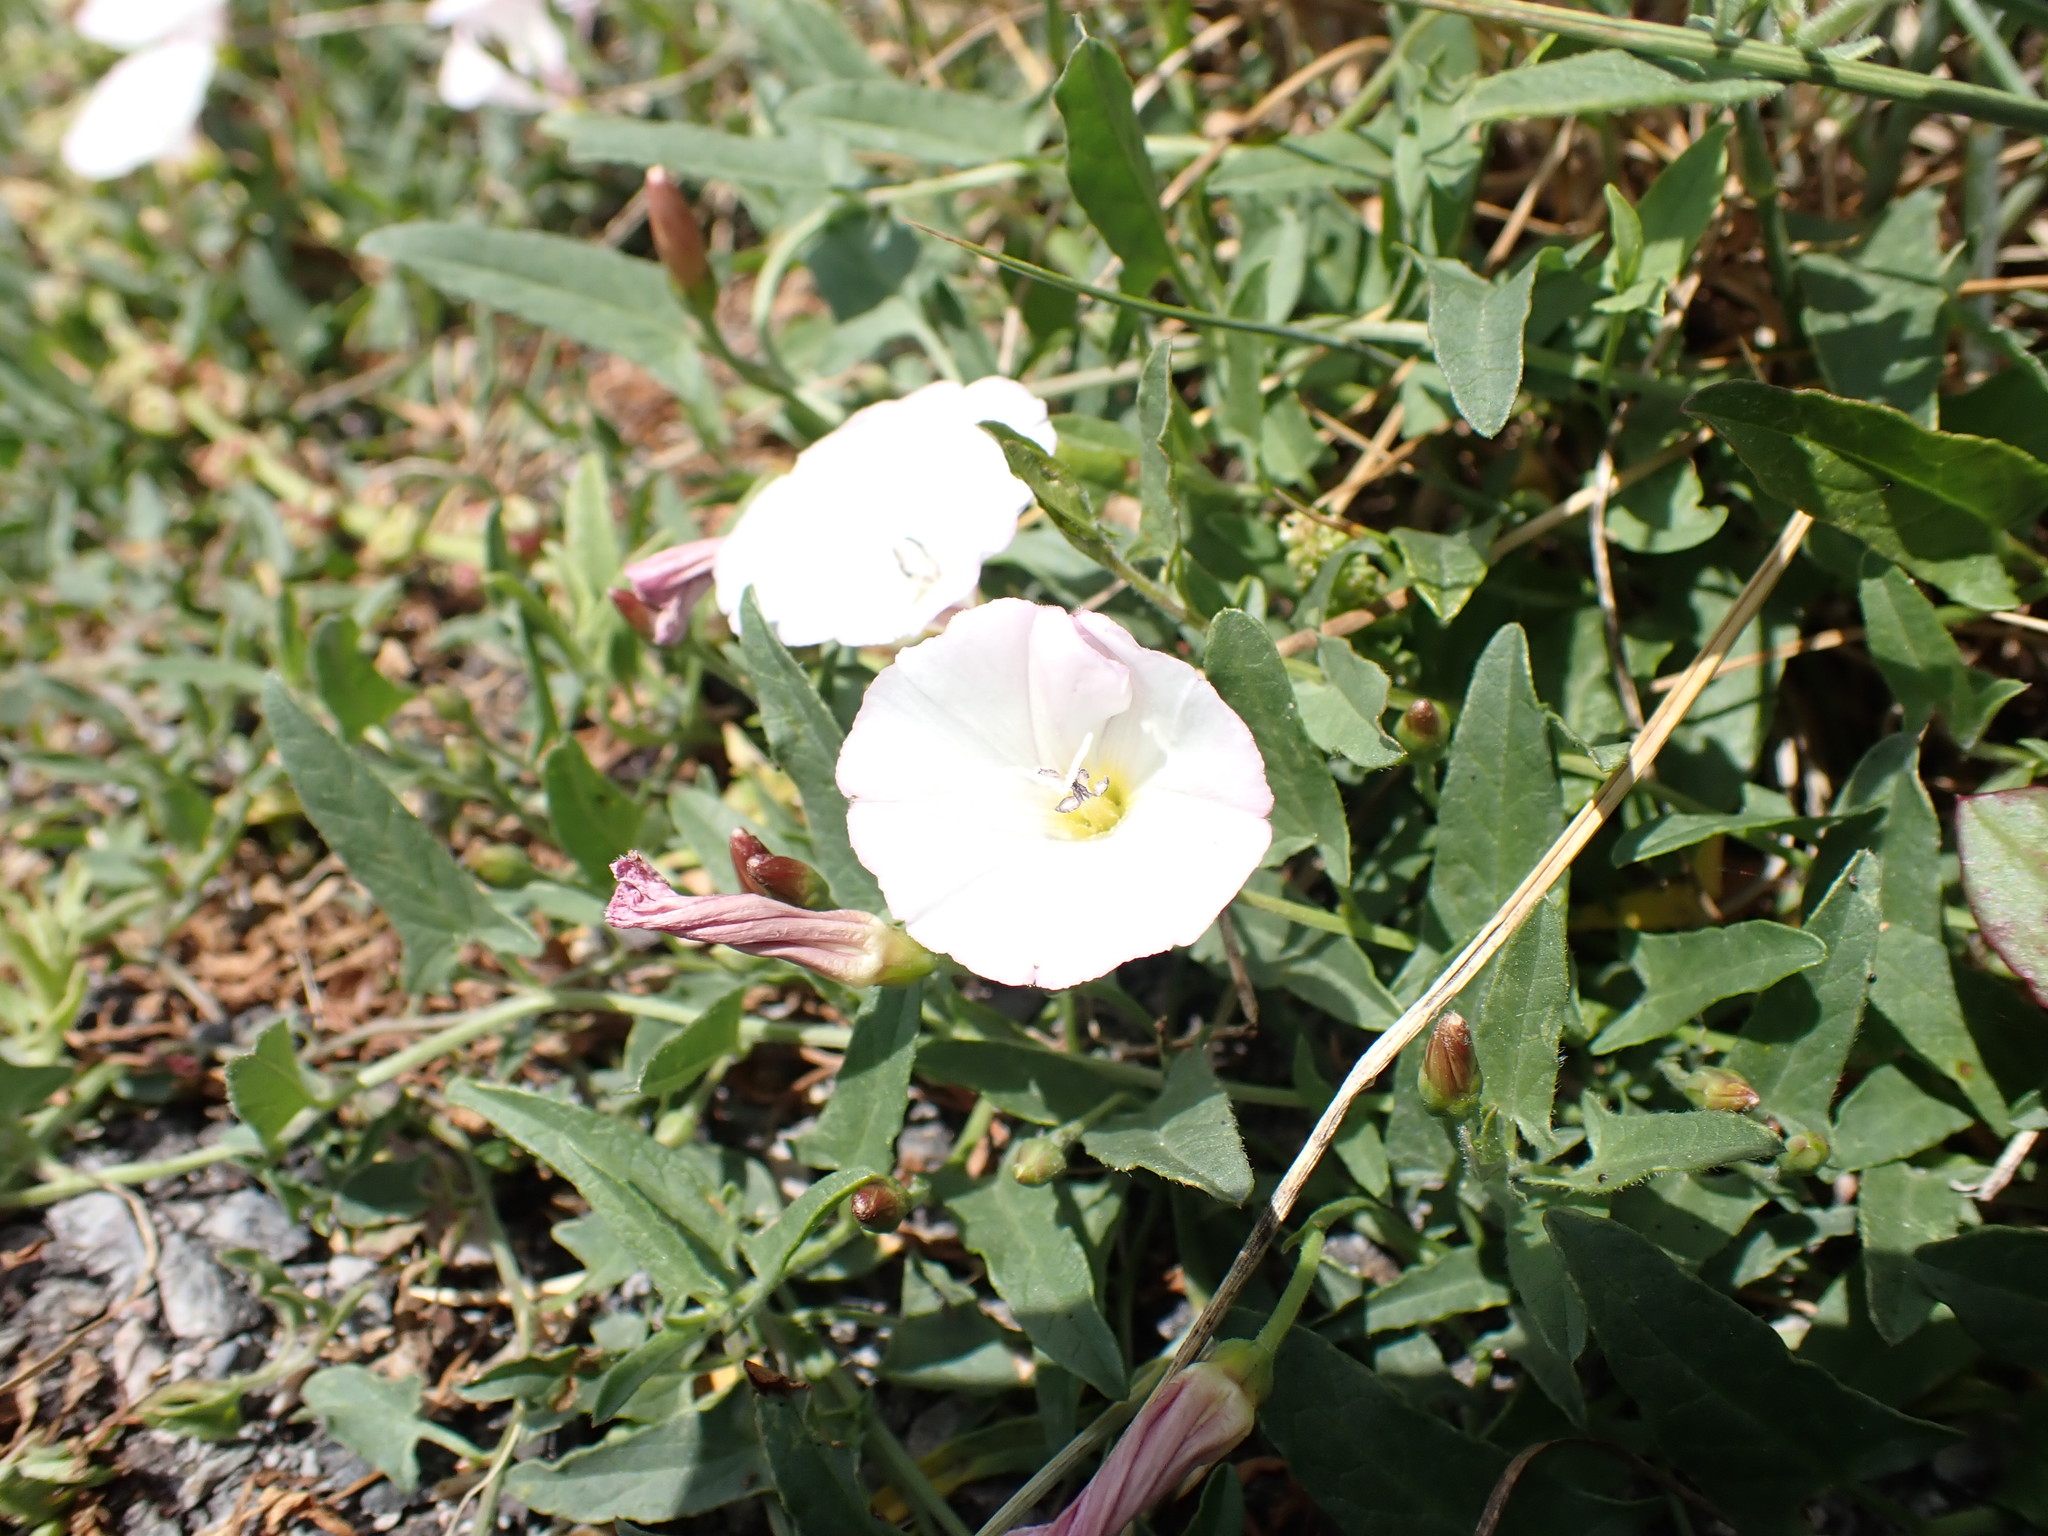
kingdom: Plantae
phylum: Tracheophyta
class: Magnoliopsida
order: Solanales
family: Convolvulaceae
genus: Convolvulus
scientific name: Convolvulus arvensis
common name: Field bindweed
